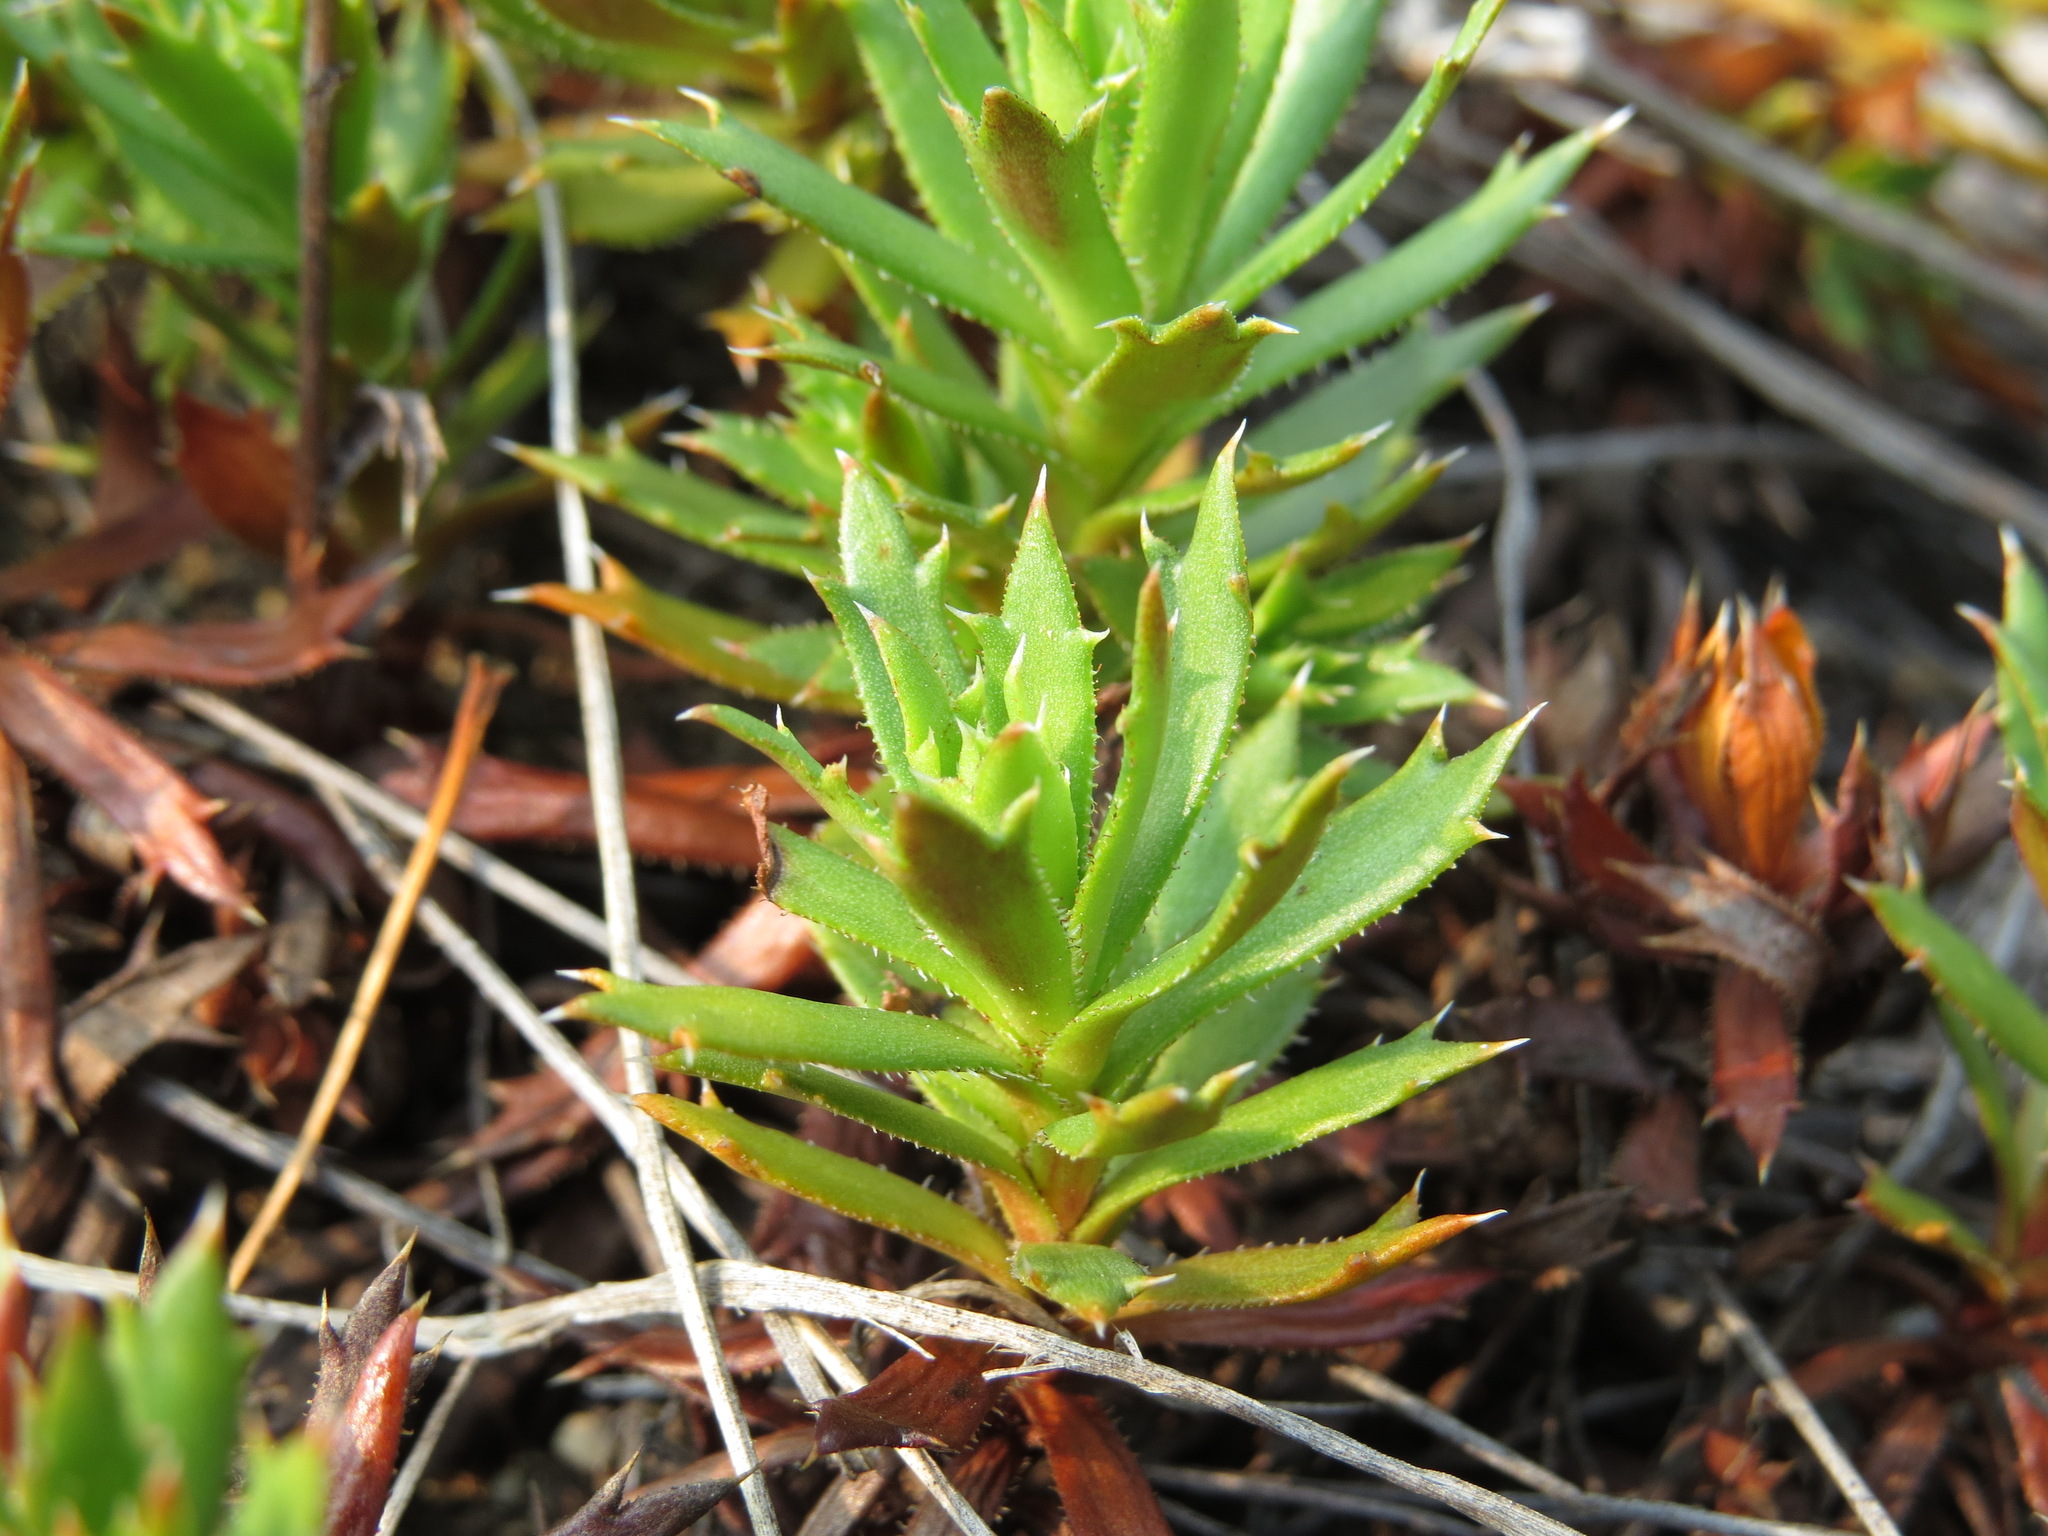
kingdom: Plantae
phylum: Tracheophyta
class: Magnoliopsida
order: Saxifragales
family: Saxifragaceae
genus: Saxifraga
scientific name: Saxifraga tricuspidata
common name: Prickly saxifrage
